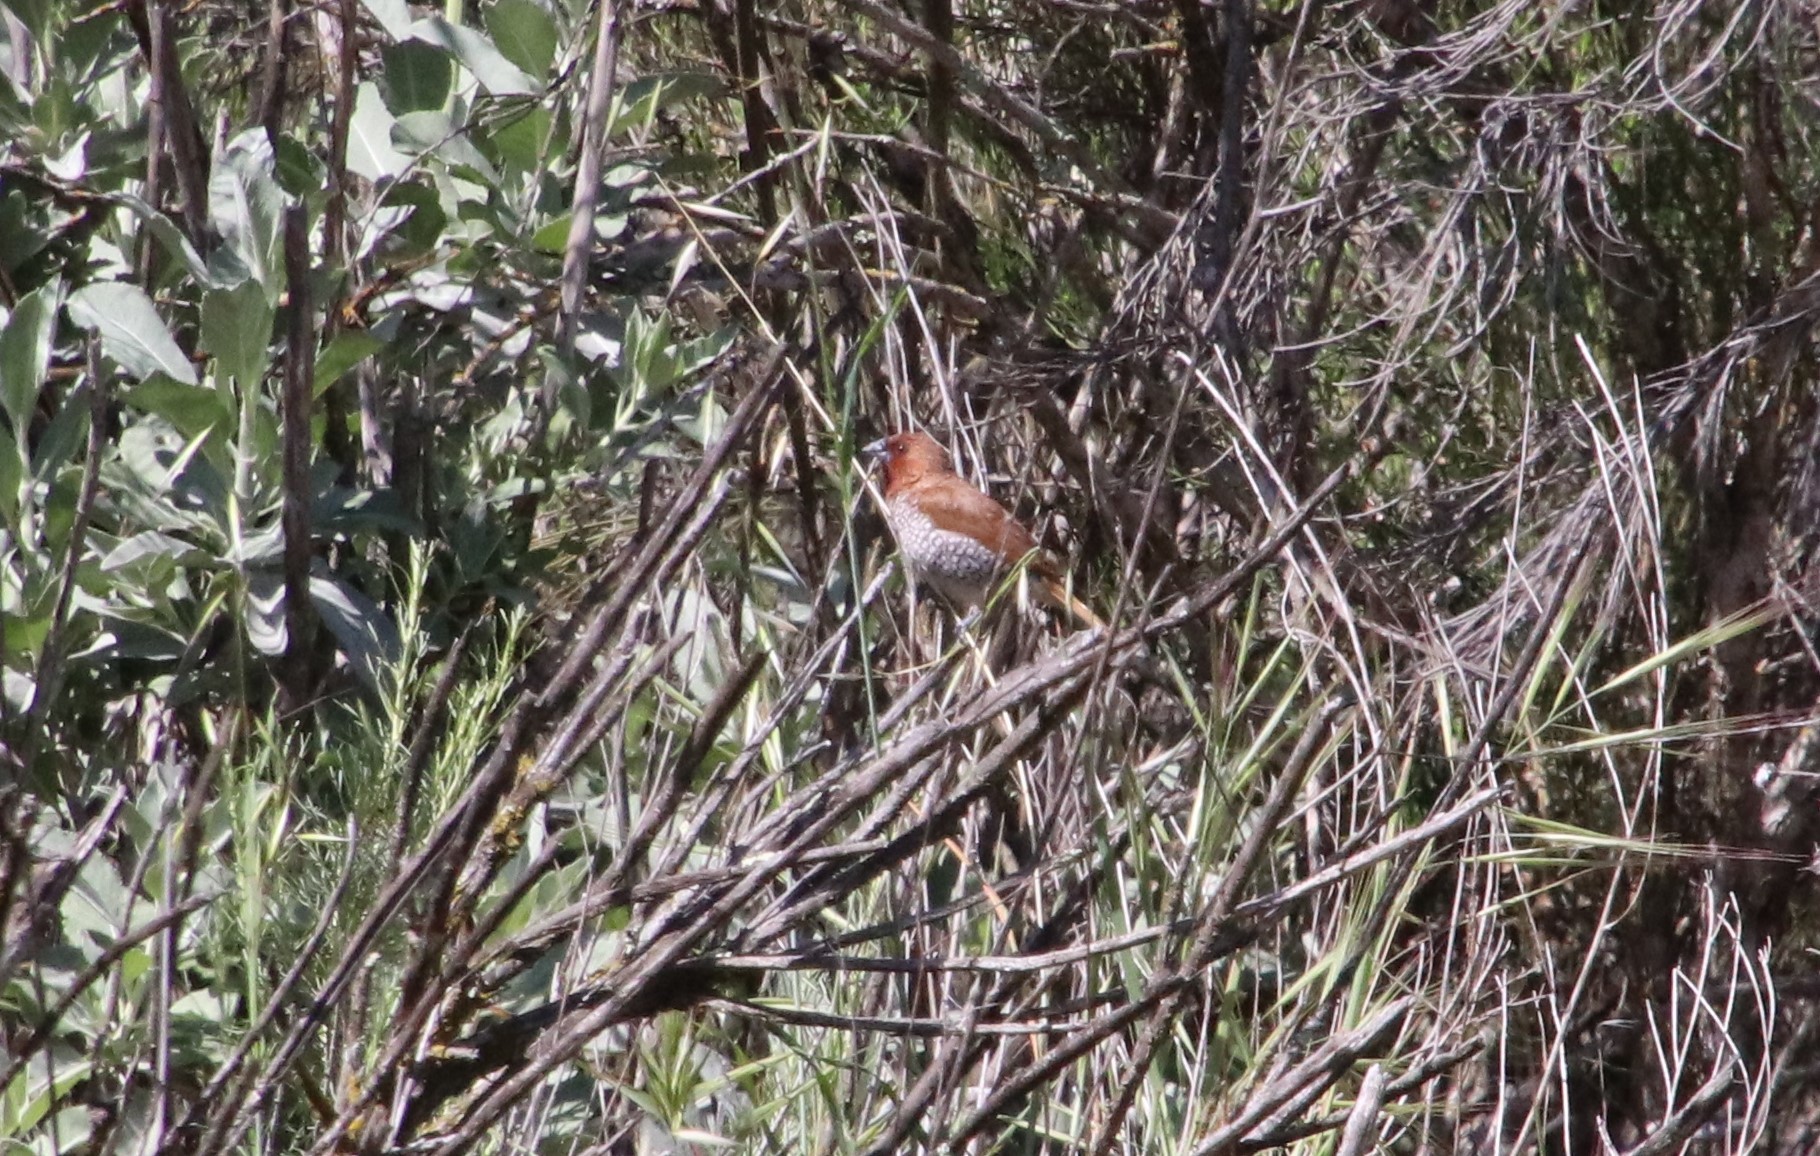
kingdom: Animalia
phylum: Chordata
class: Aves
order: Passeriformes
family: Estrildidae
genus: Lonchura
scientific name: Lonchura punctulata
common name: Scaly-breasted munia
